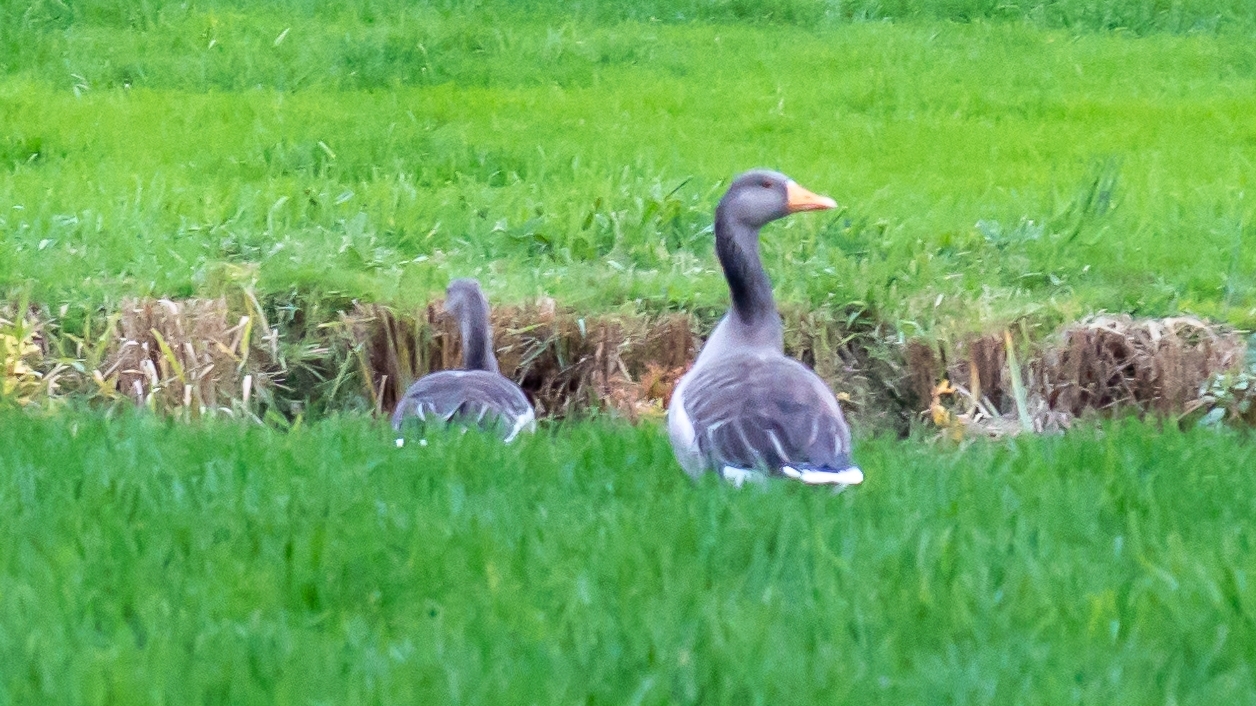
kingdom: Animalia
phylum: Chordata
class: Aves
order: Anseriformes
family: Anatidae
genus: Anser
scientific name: Anser anser
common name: Greylag goose
